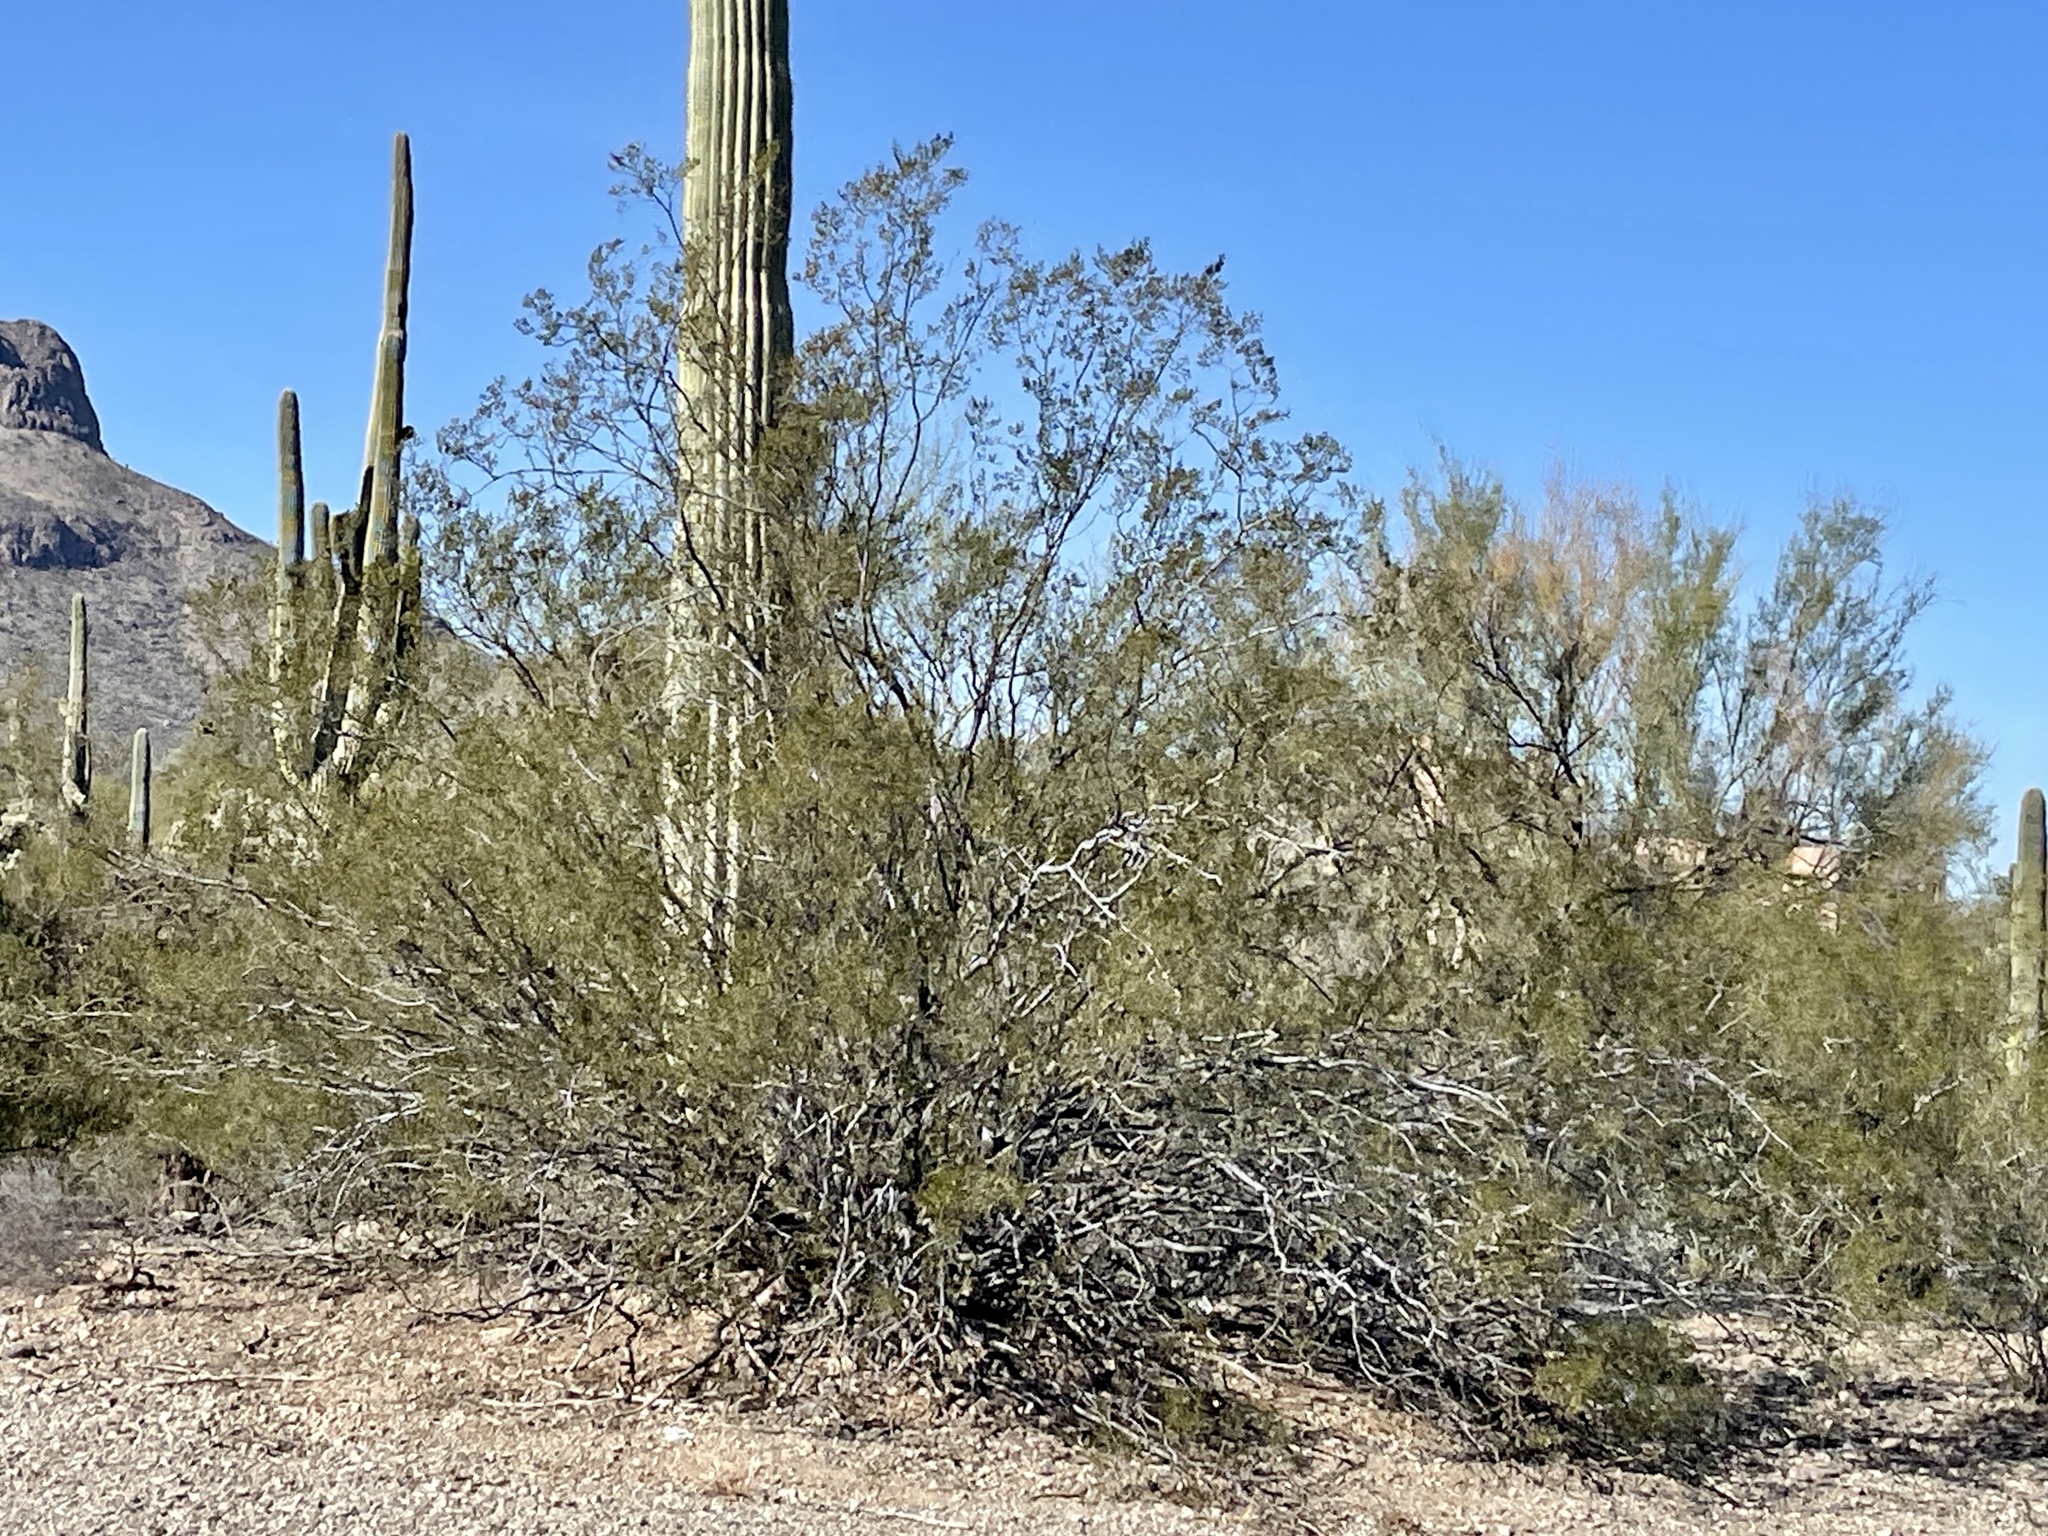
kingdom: Plantae
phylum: Tracheophyta
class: Magnoliopsida
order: Zygophyllales
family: Zygophyllaceae
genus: Larrea
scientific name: Larrea tridentata
